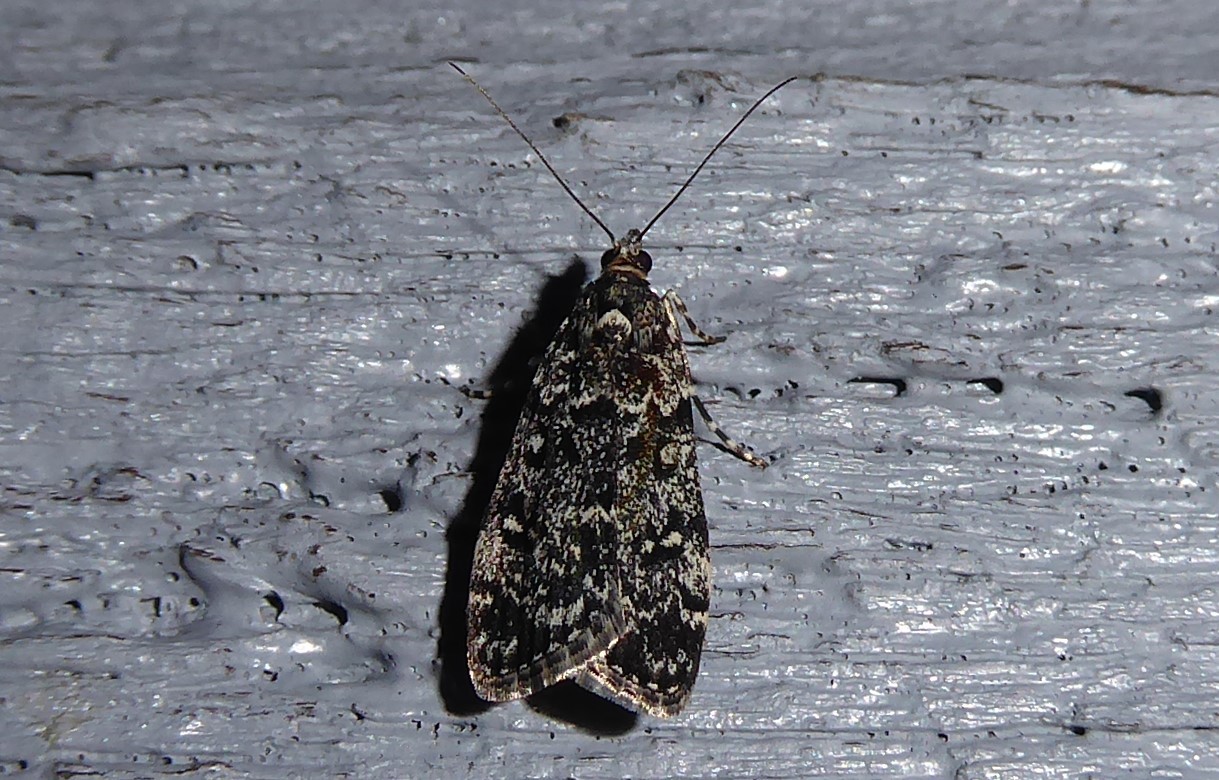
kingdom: Animalia
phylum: Arthropoda
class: Insecta
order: Lepidoptera
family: Crambidae
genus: Eudonia
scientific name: Eudonia philerga
